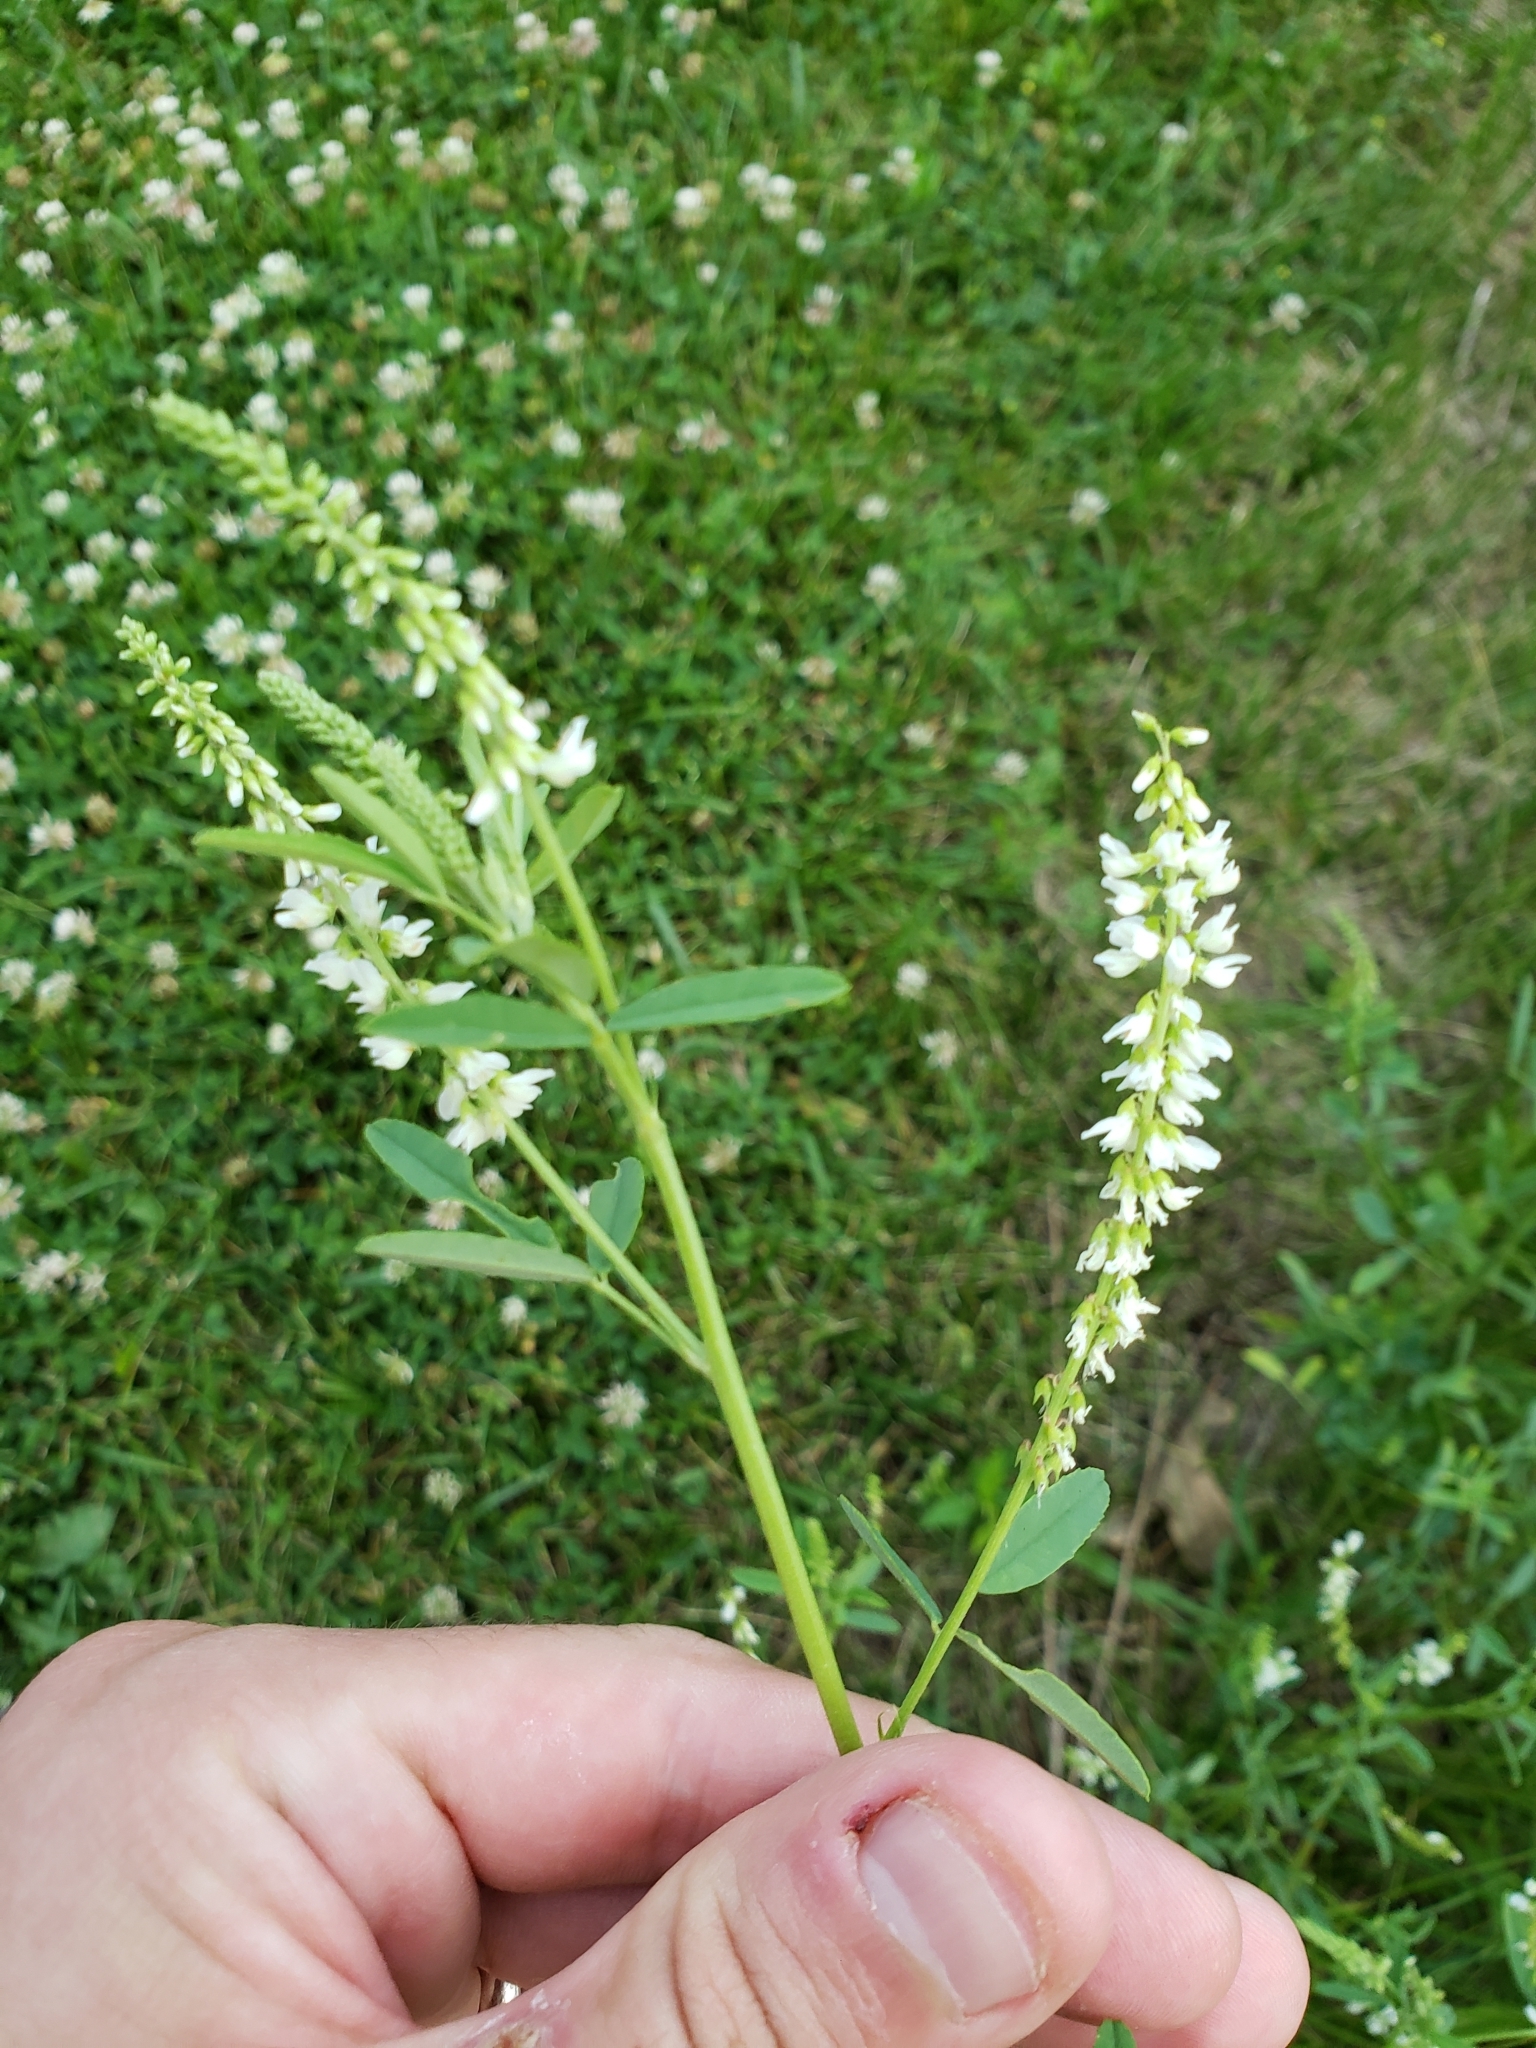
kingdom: Plantae
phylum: Tracheophyta
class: Magnoliopsida
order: Fabales
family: Fabaceae
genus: Melilotus
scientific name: Melilotus albus
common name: White melilot
